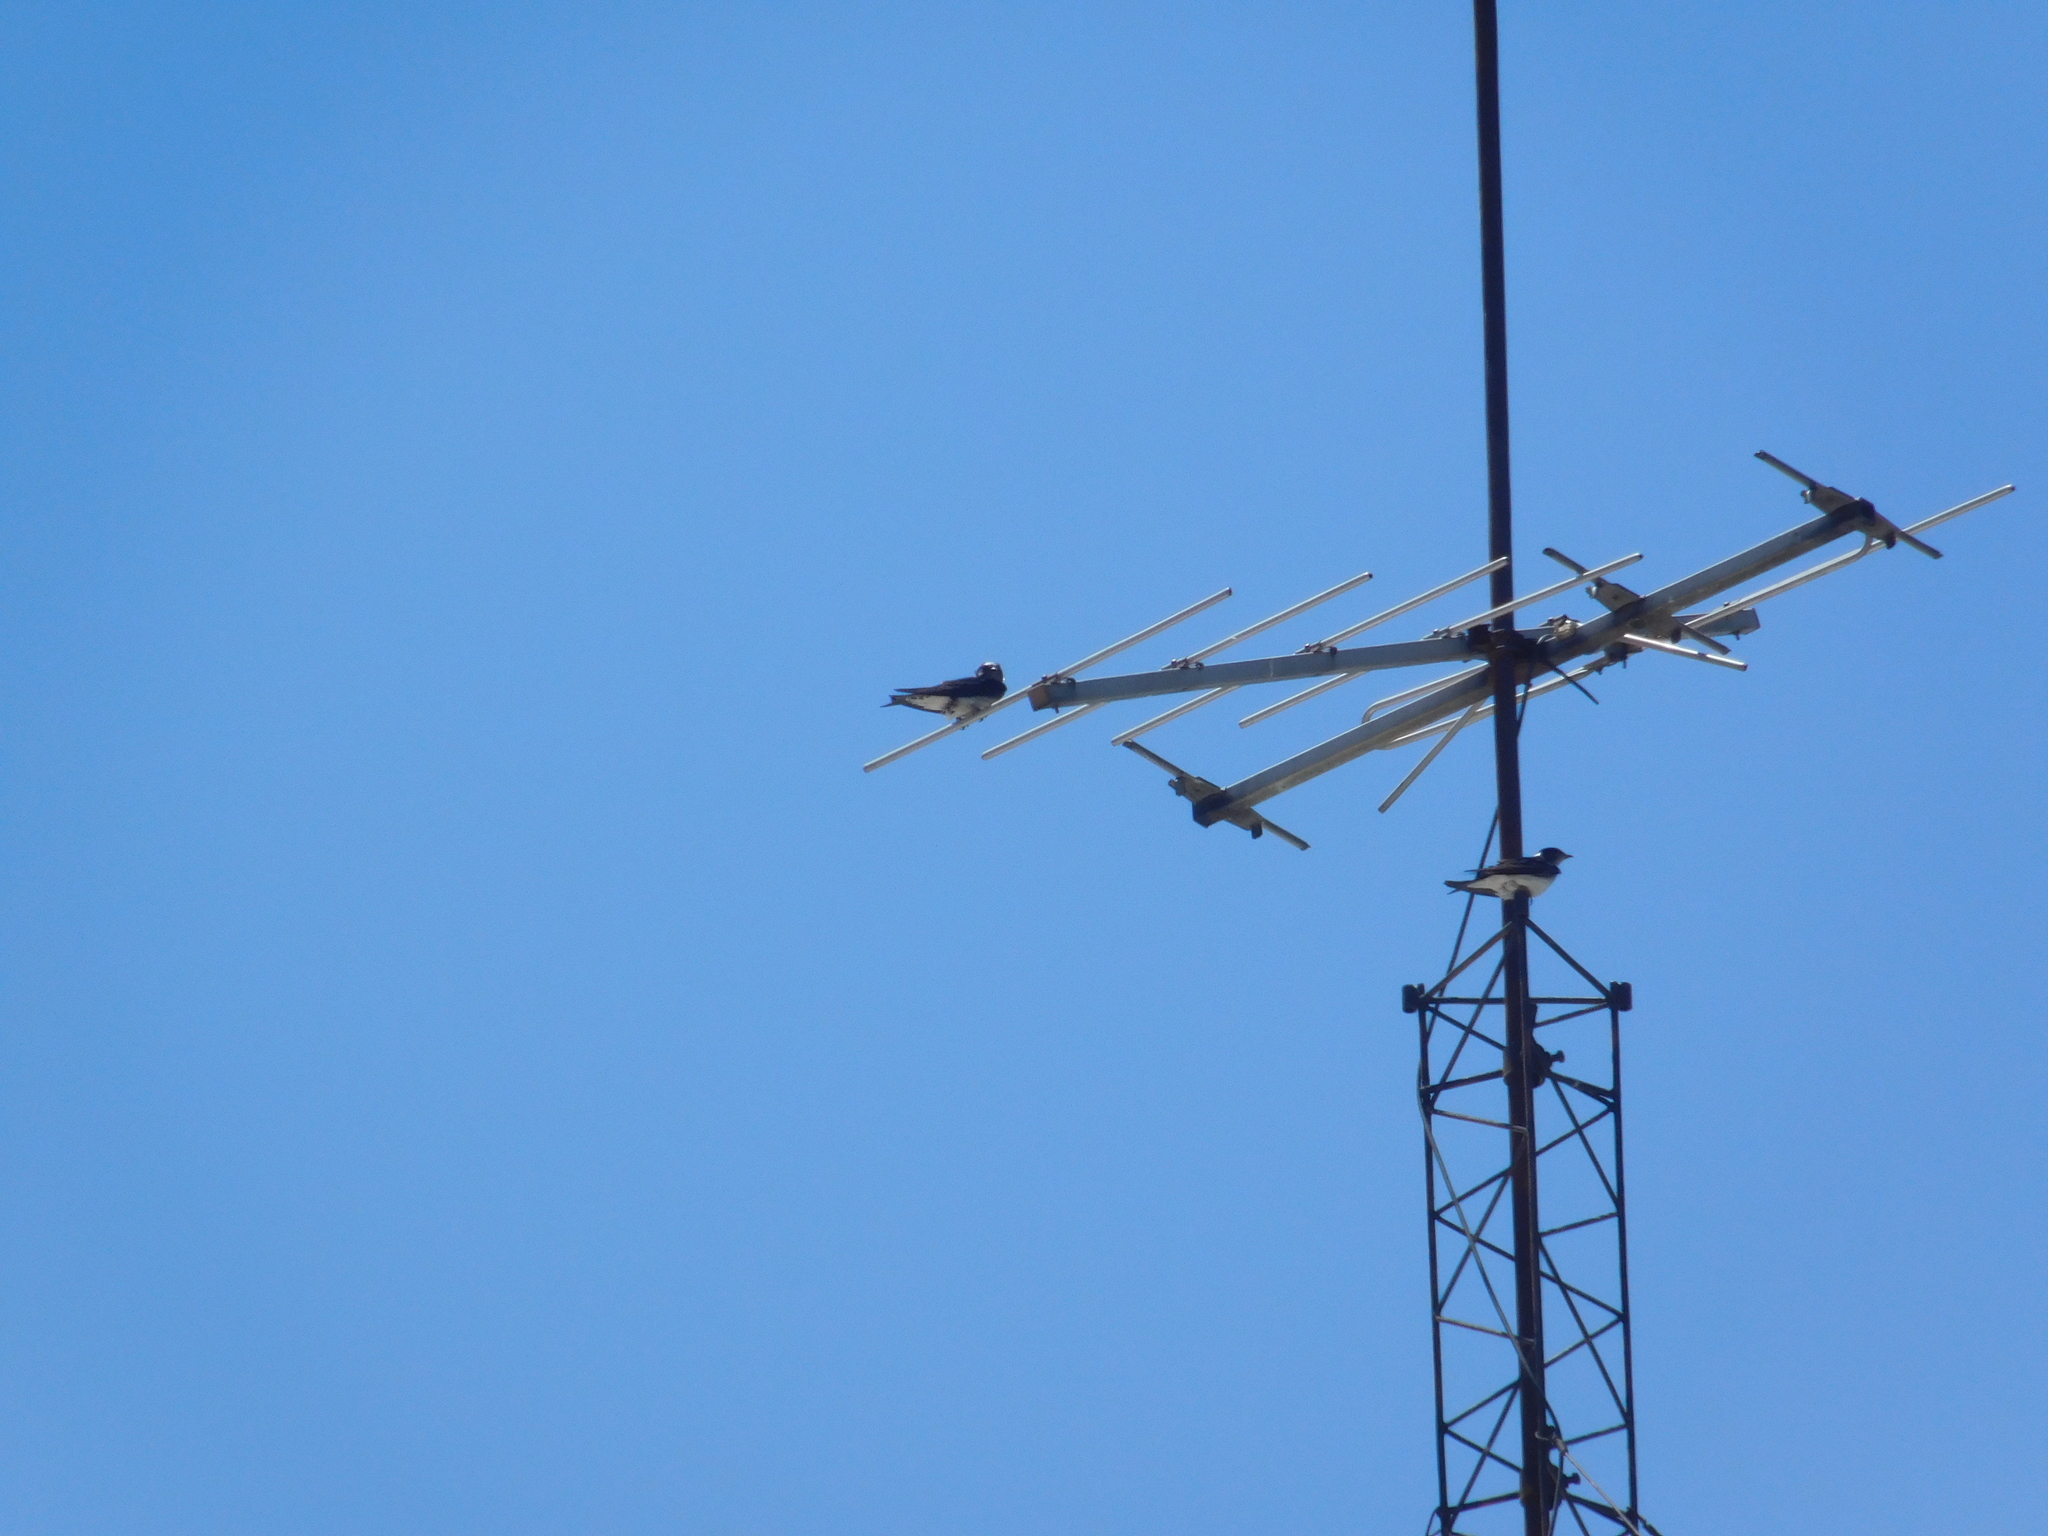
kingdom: Animalia
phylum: Chordata
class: Aves
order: Passeriformes
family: Hirundinidae
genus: Tachycineta
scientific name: Tachycineta leucorrhoa
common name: White-rumped swallow
